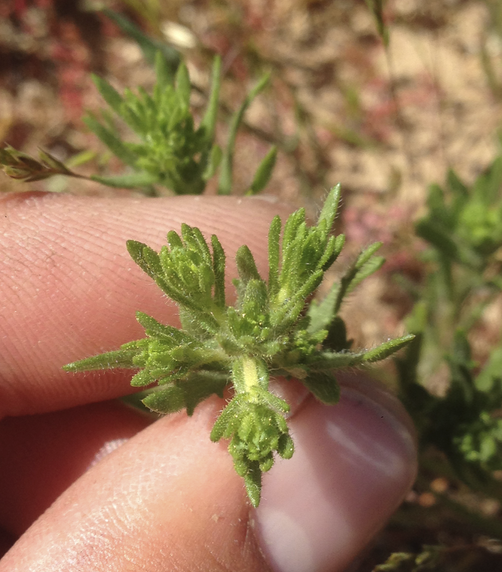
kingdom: Plantae
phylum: Tracheophyta
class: Magnoliopsida
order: Asterales
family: Asteraceae
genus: Deinandra
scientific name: Deinandra fasciculata
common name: Clustered tarweed
